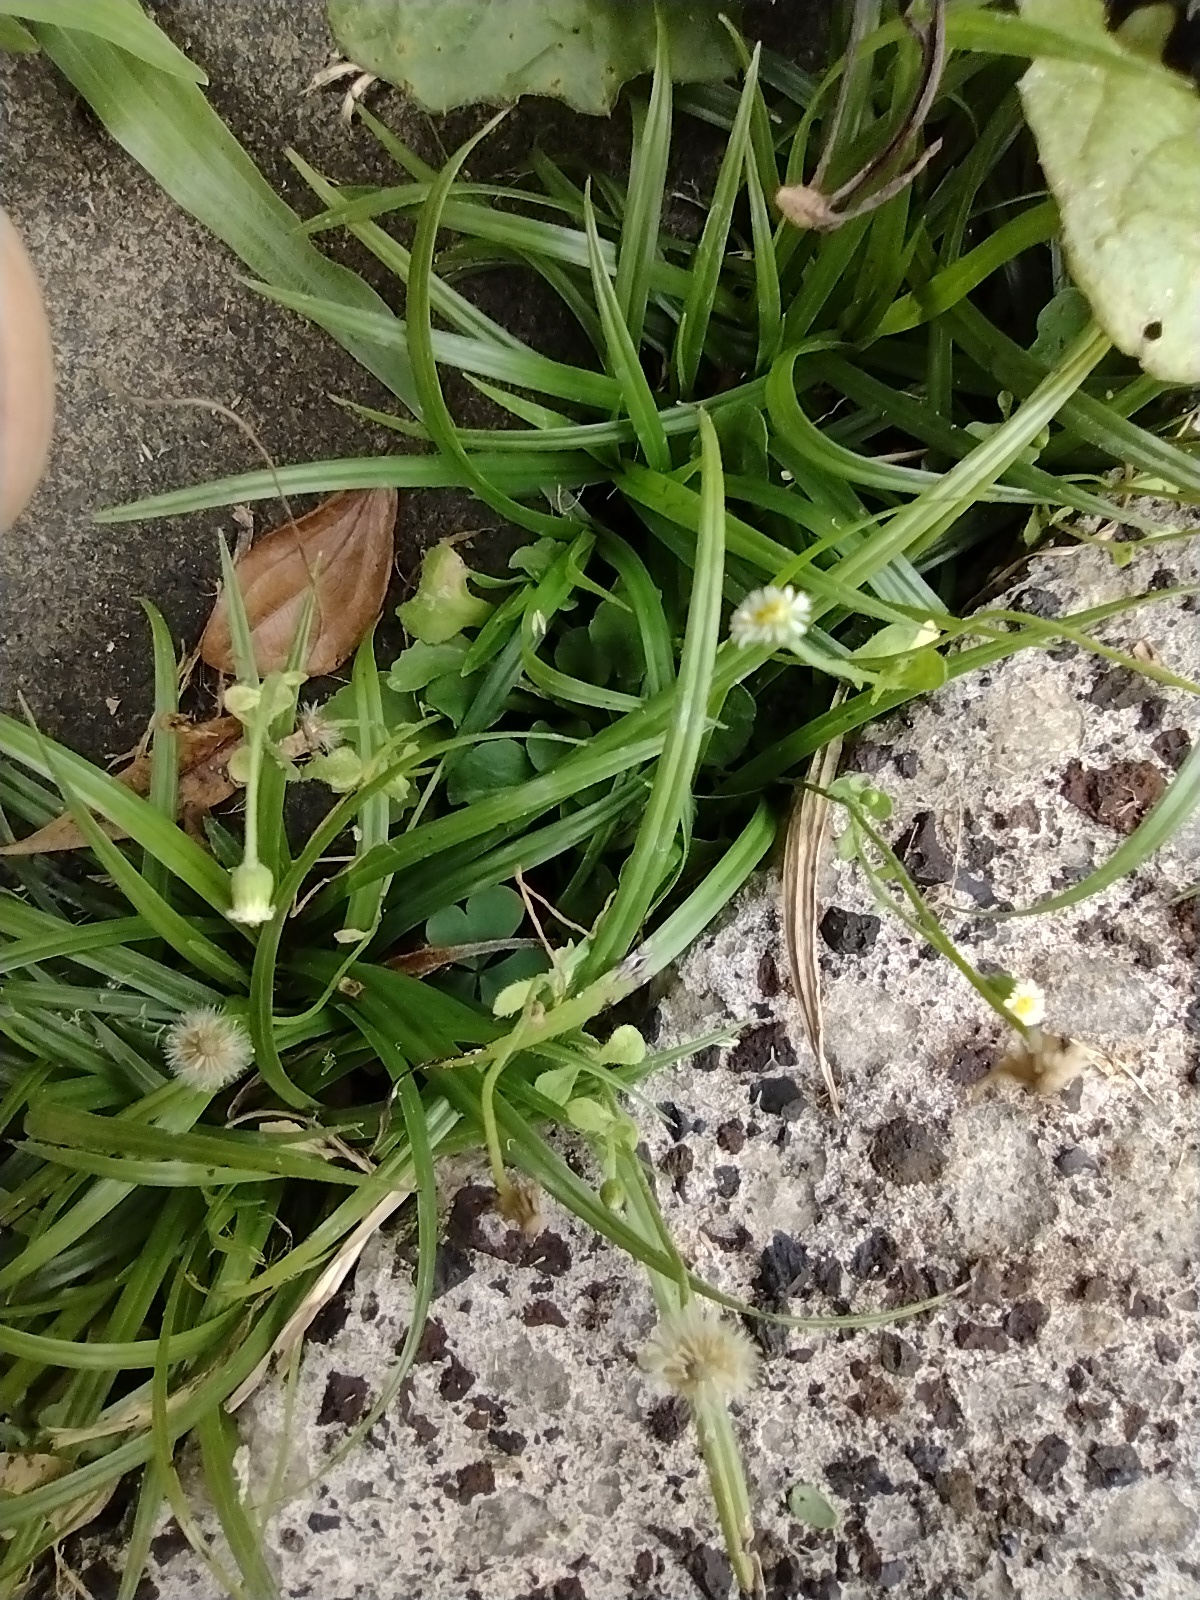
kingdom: Plantae
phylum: Tracheophyta
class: Magnoliopsida
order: Asterales
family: Asteraceae
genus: Erigeron
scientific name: Erigeron bellioides
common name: Bellorita
